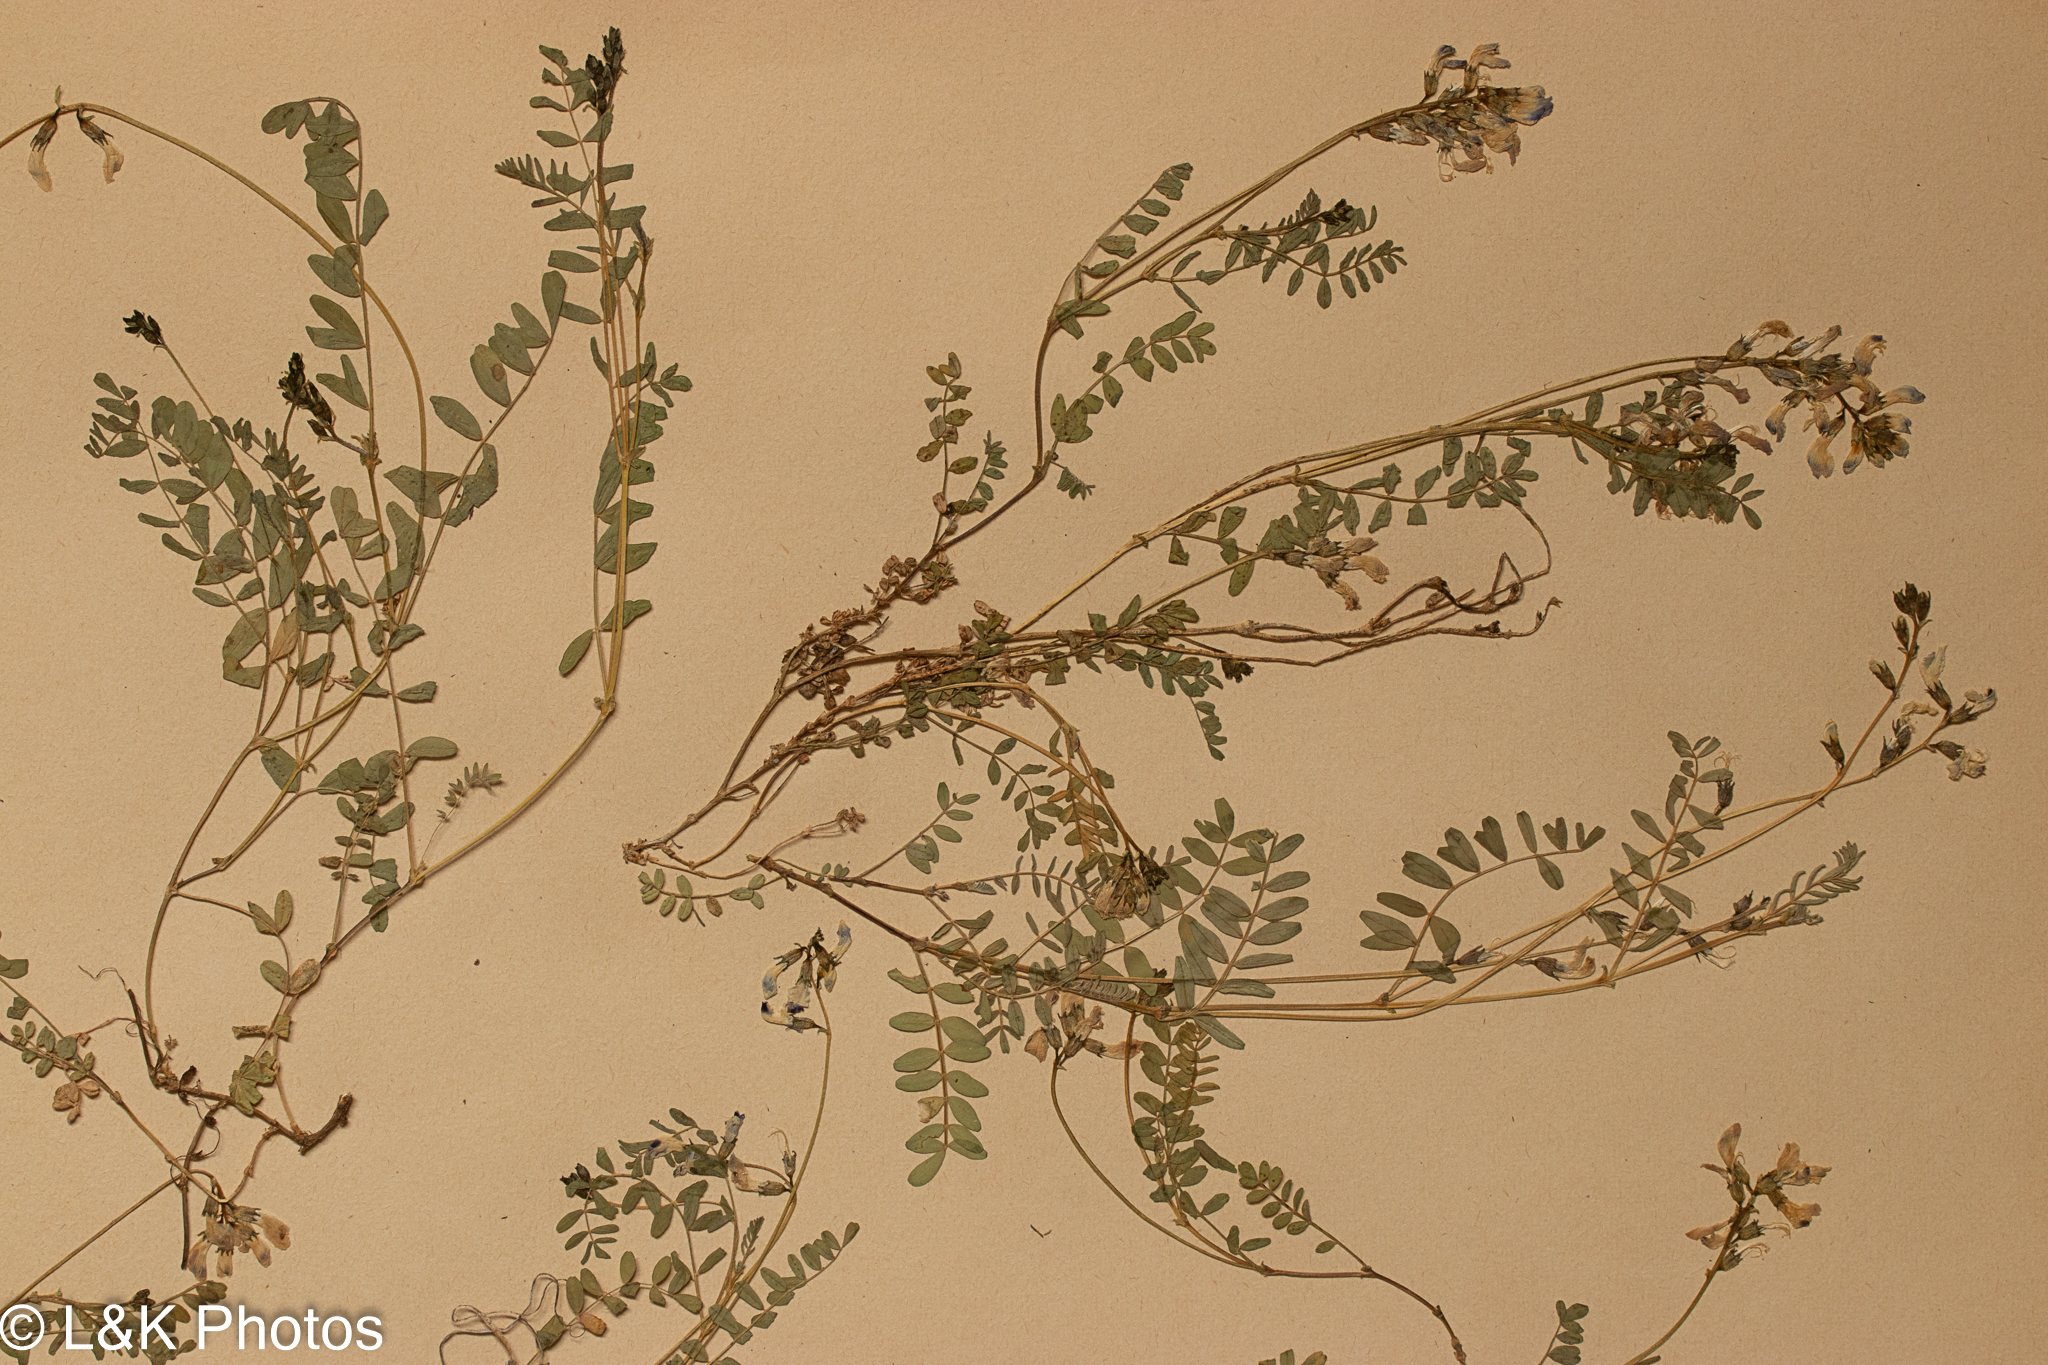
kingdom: Plantae
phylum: Tracheophyta
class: Magnoliopsida
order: Fabales
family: Fabaceae
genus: Astragalus
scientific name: Astragalus bodinii
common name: Bodin's milk-vetch
